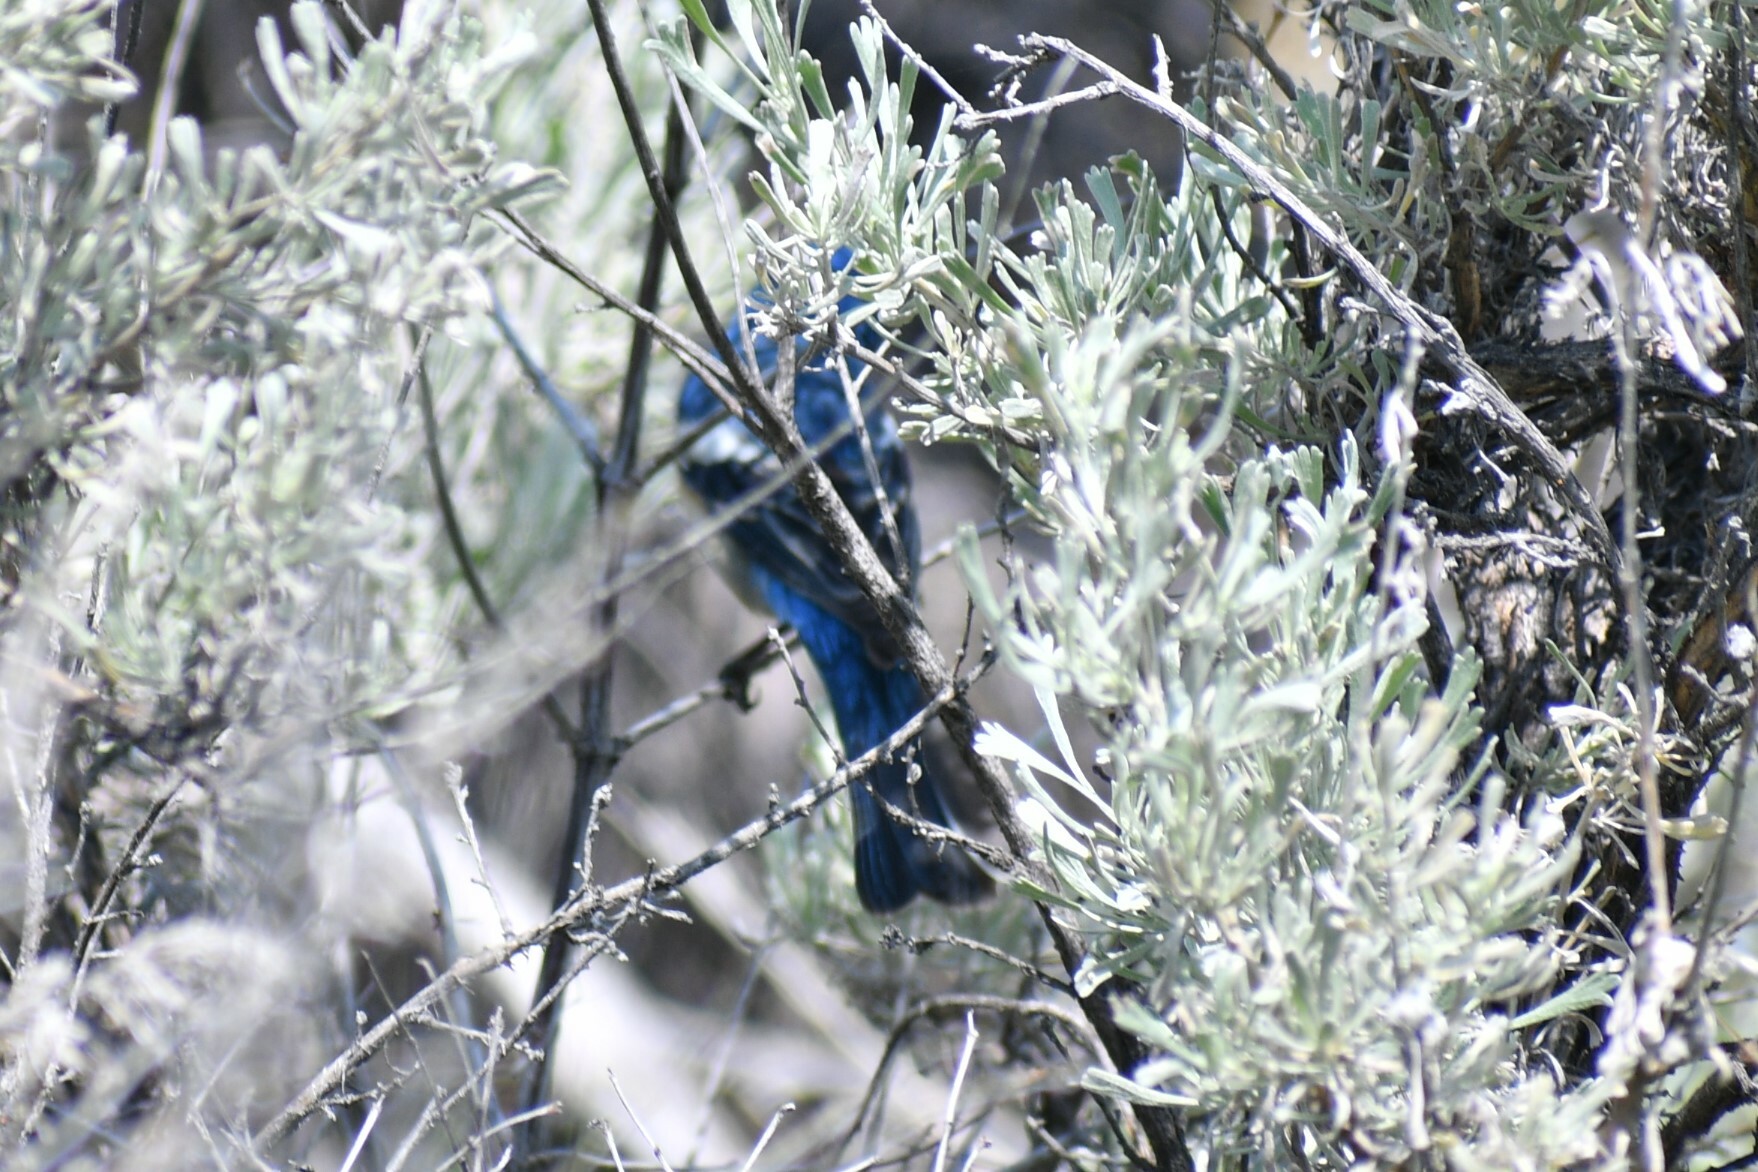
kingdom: Animalia
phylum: Chordata
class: Aves
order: Passeriformes
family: Cardinalidae
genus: Passerina
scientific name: Passerina amoena
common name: Lazuli bunting
